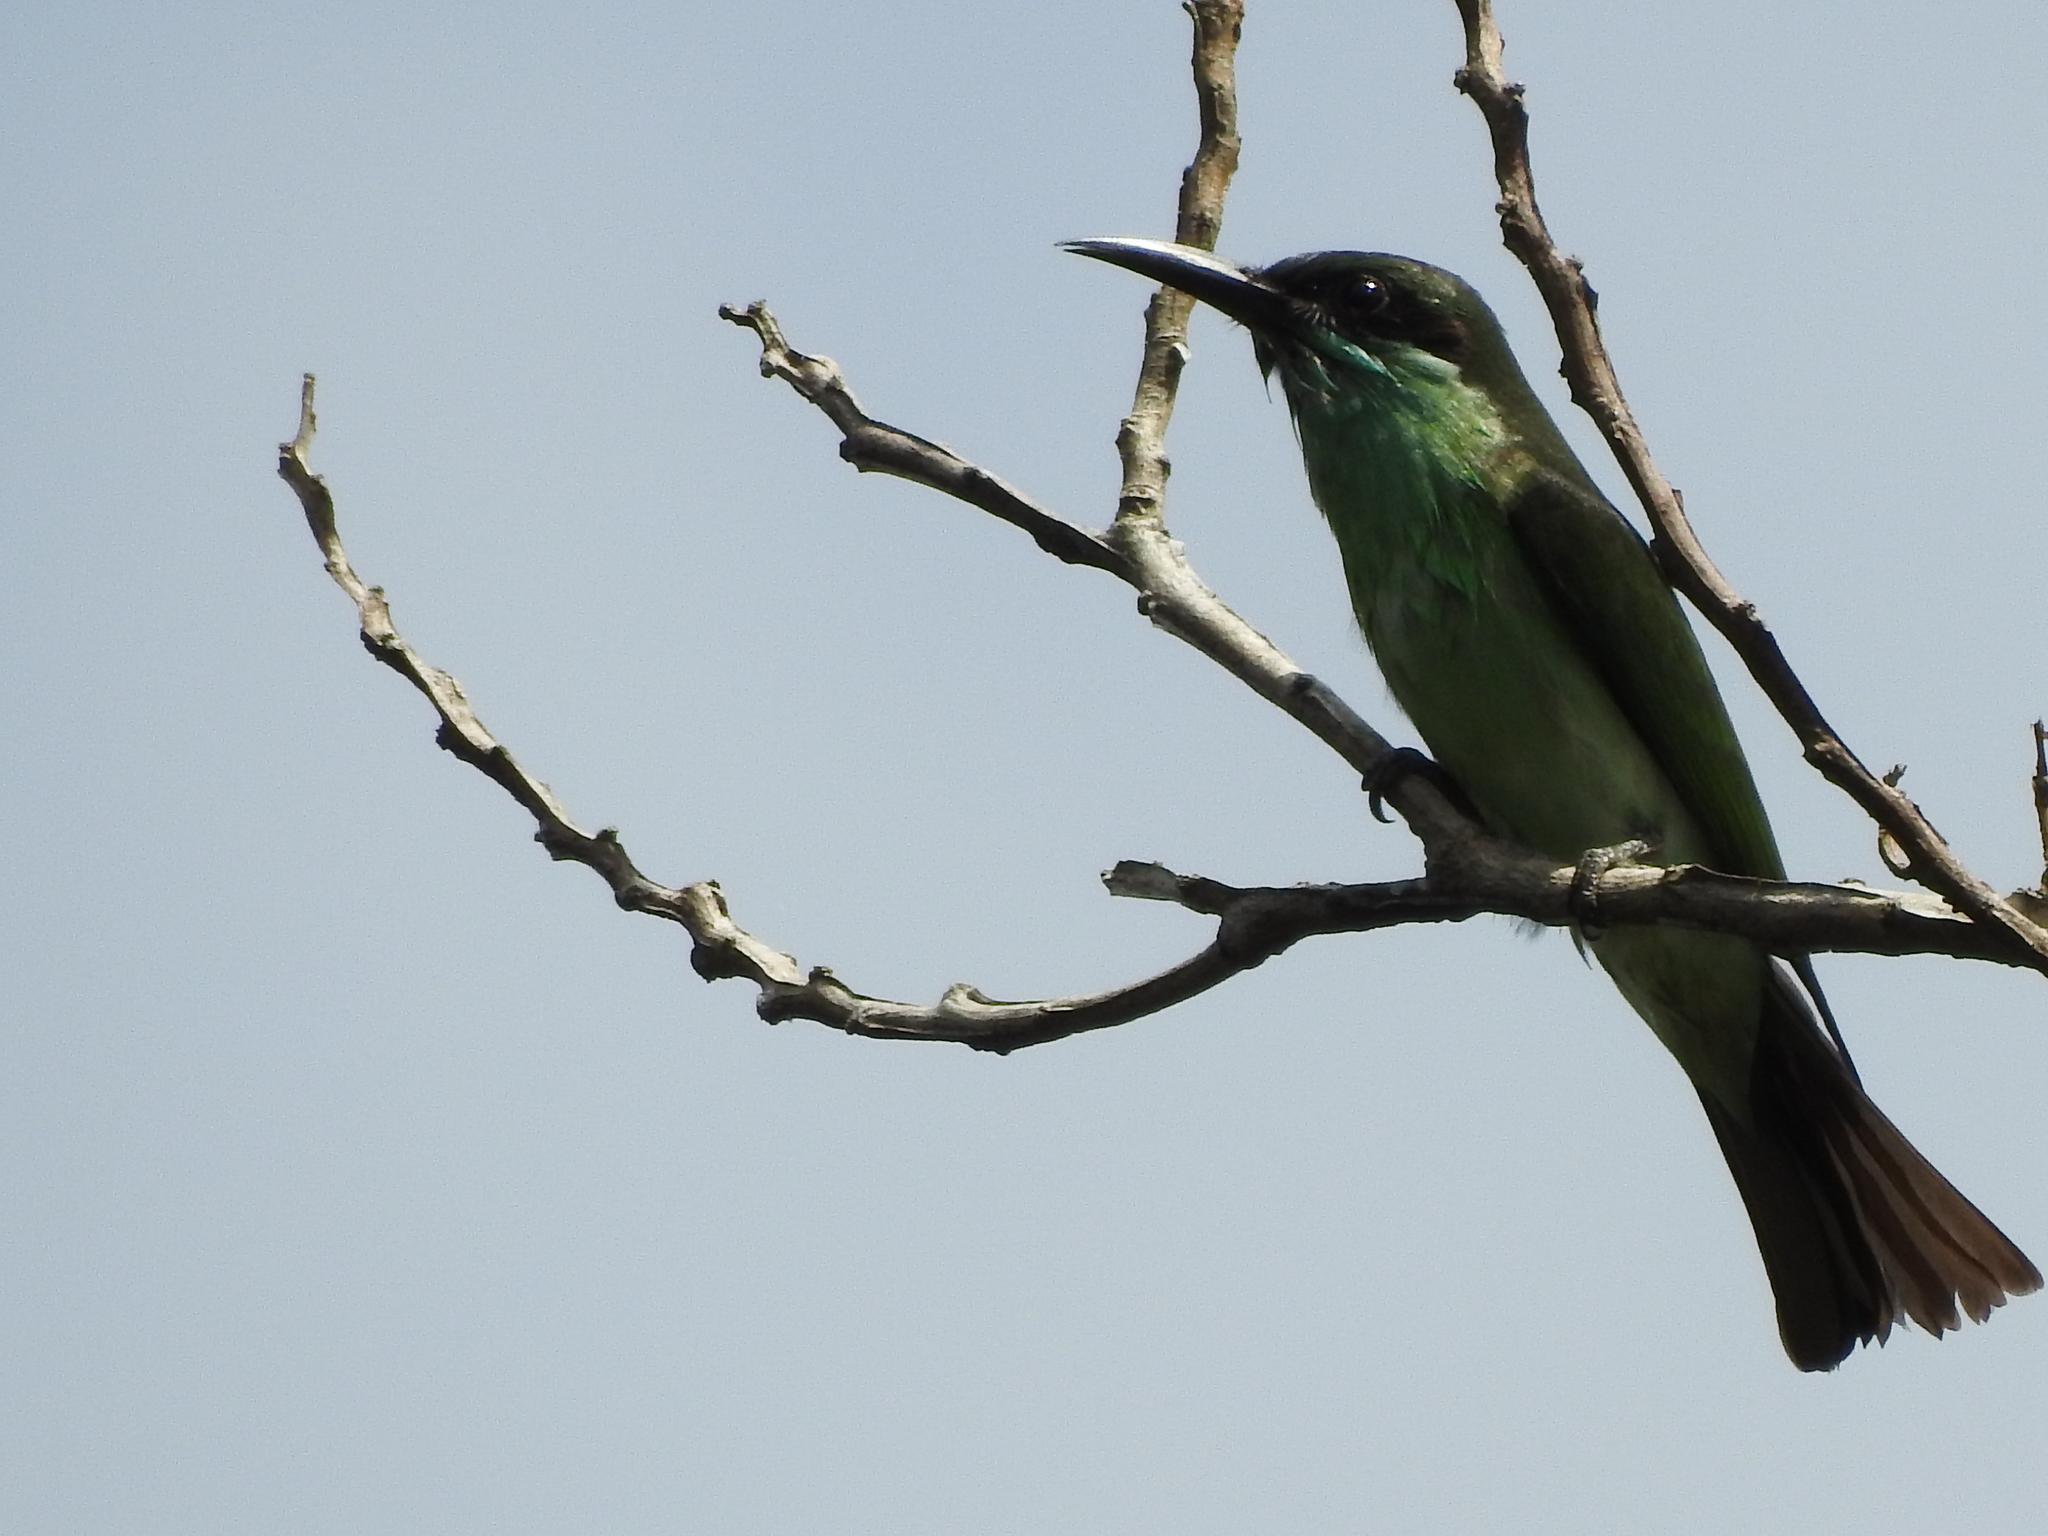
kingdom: Animalia
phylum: Chordata
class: Aves
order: Coraciiformes
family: Meropidae
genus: Merops
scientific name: Merops viridis
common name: Blue-throated bee-eater
